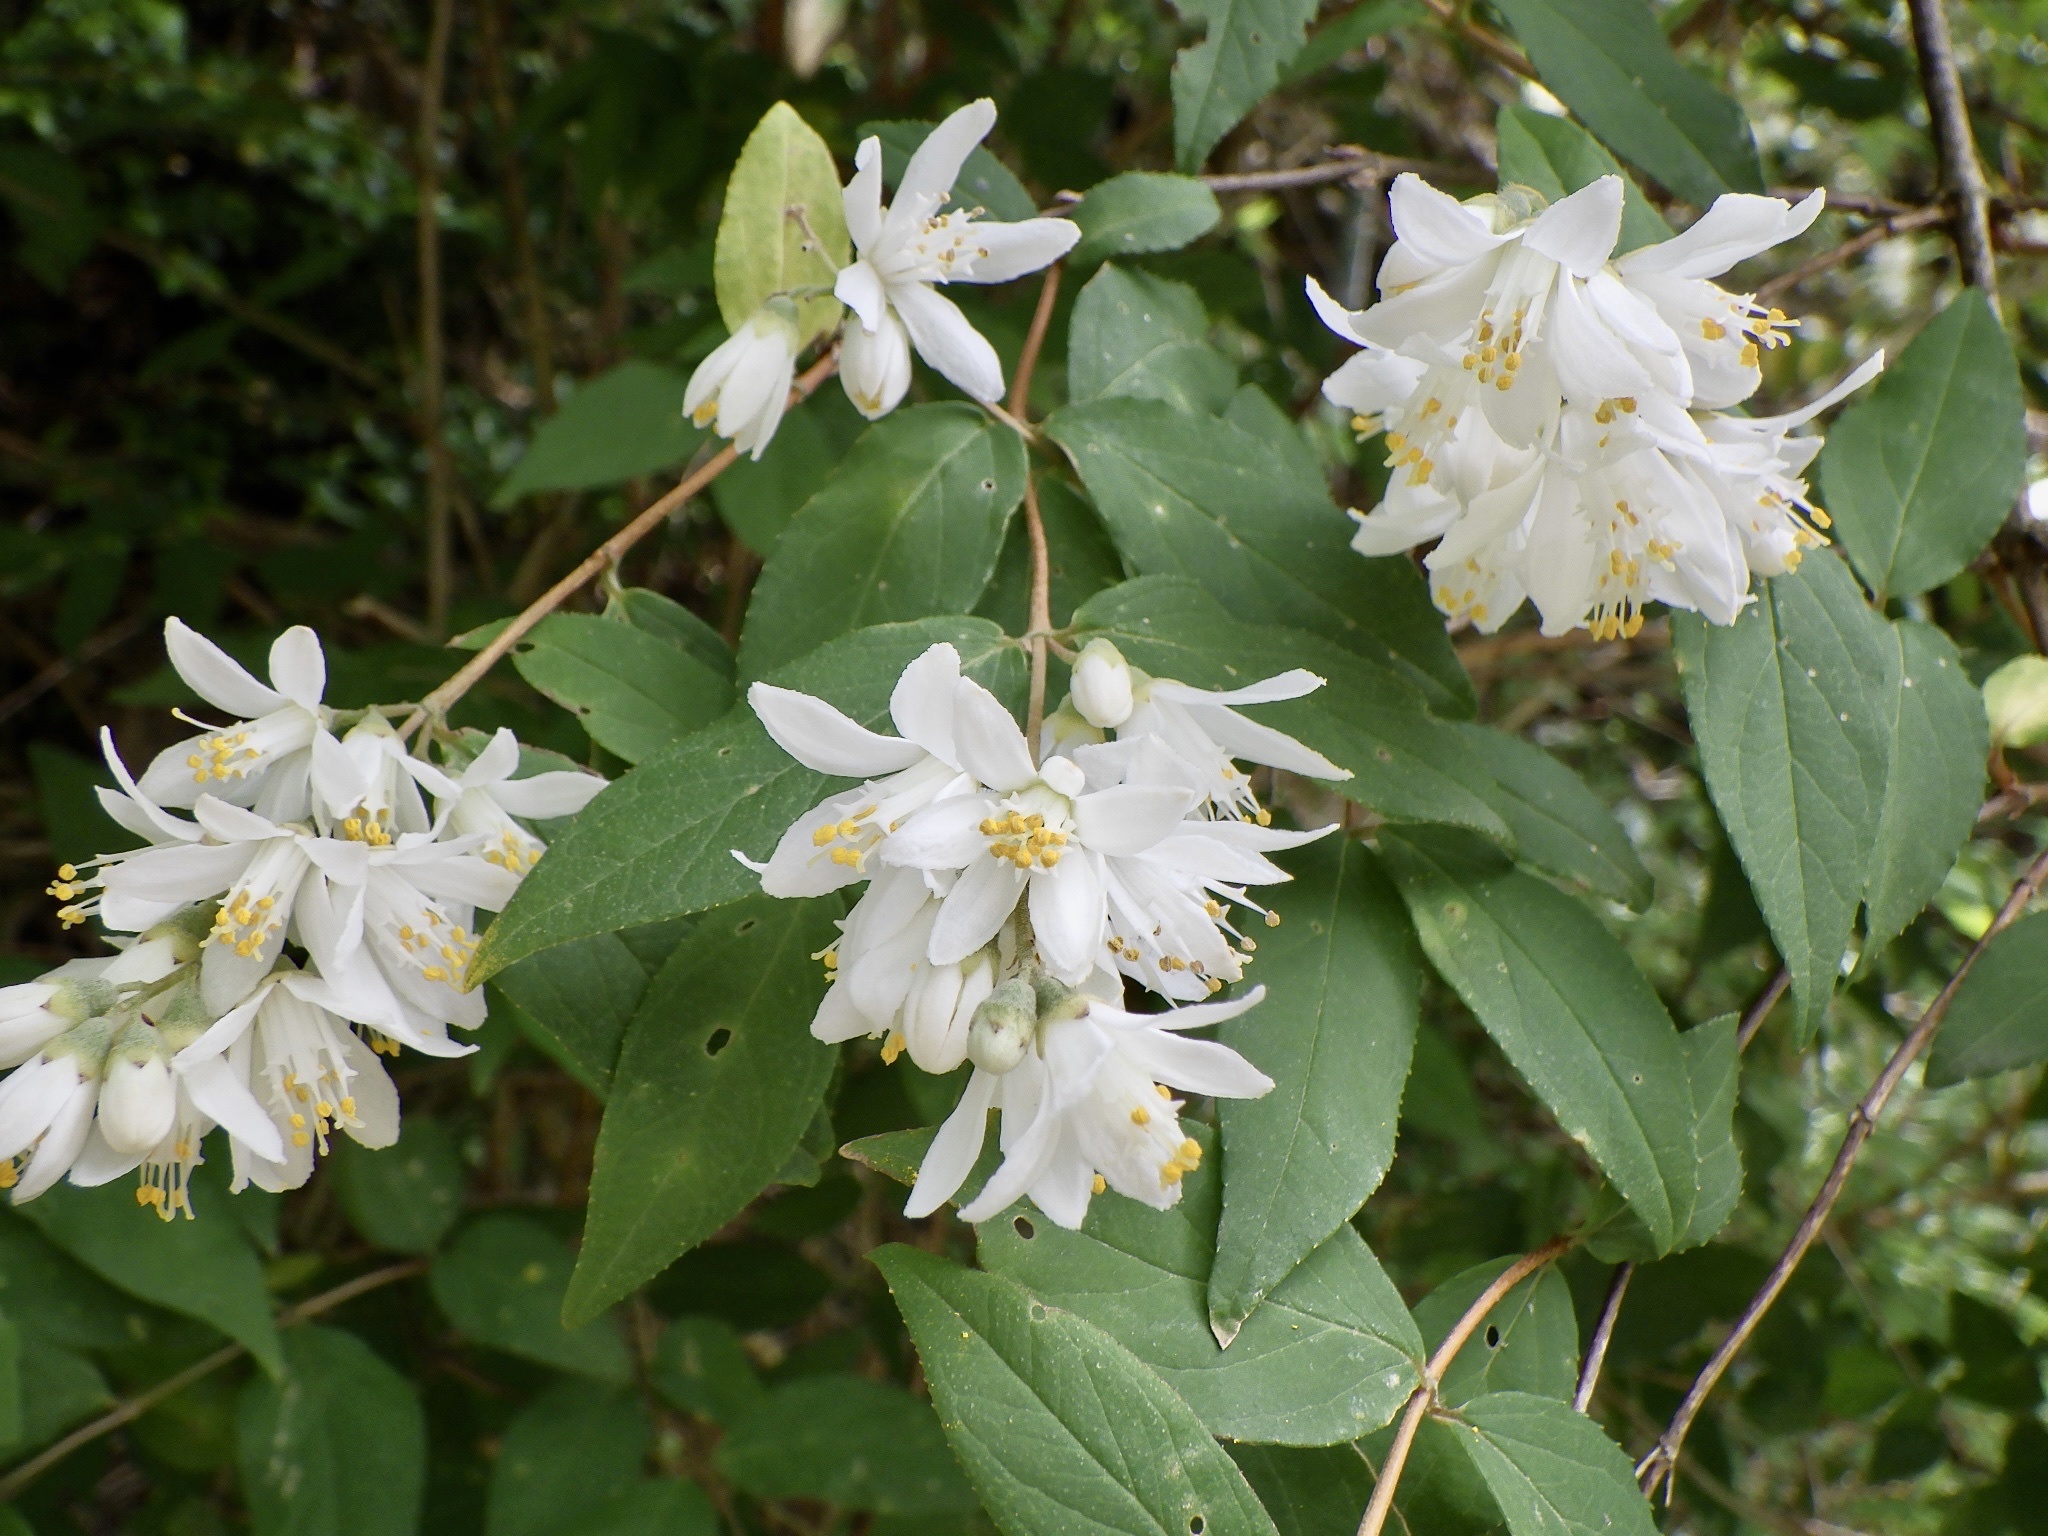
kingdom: Plantae
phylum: Tracheophyta
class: Magnoliopsida
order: Cornales
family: Hydrangeaceae
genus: Deutzia
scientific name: Deutzia crenata
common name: Deutzia
